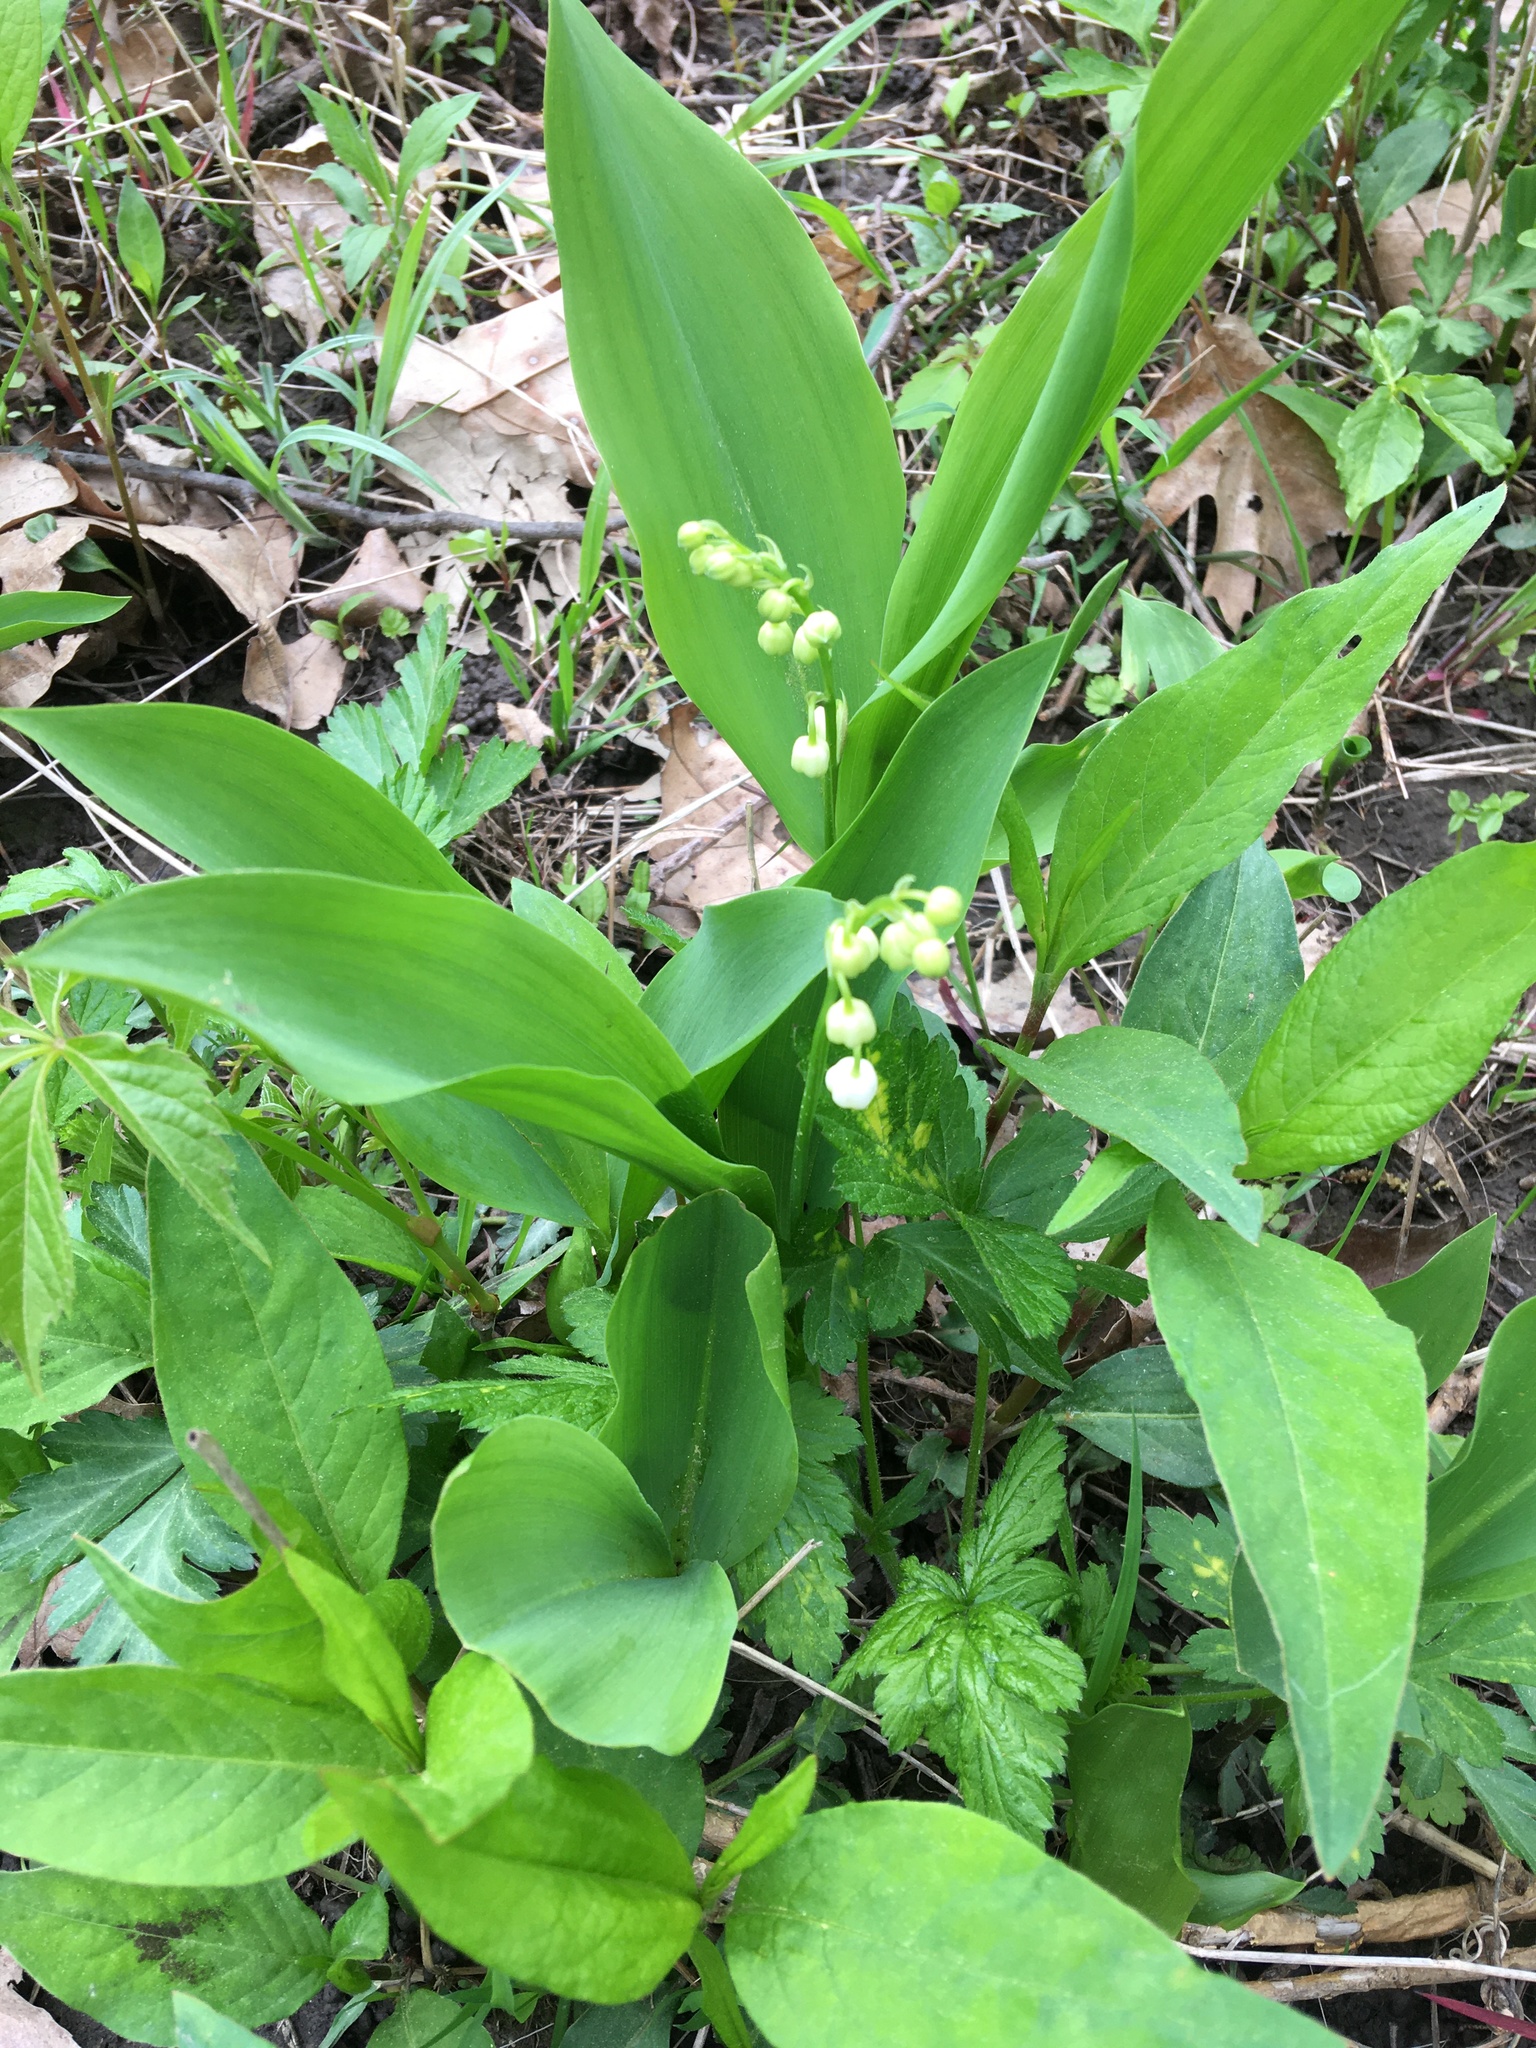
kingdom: Plantae
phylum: Tracheophyta
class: Liliopsida
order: Asparagales
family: Asparagaceae
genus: Convallaria
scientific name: Convallaria majalis
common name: Lily-of-the-valley
